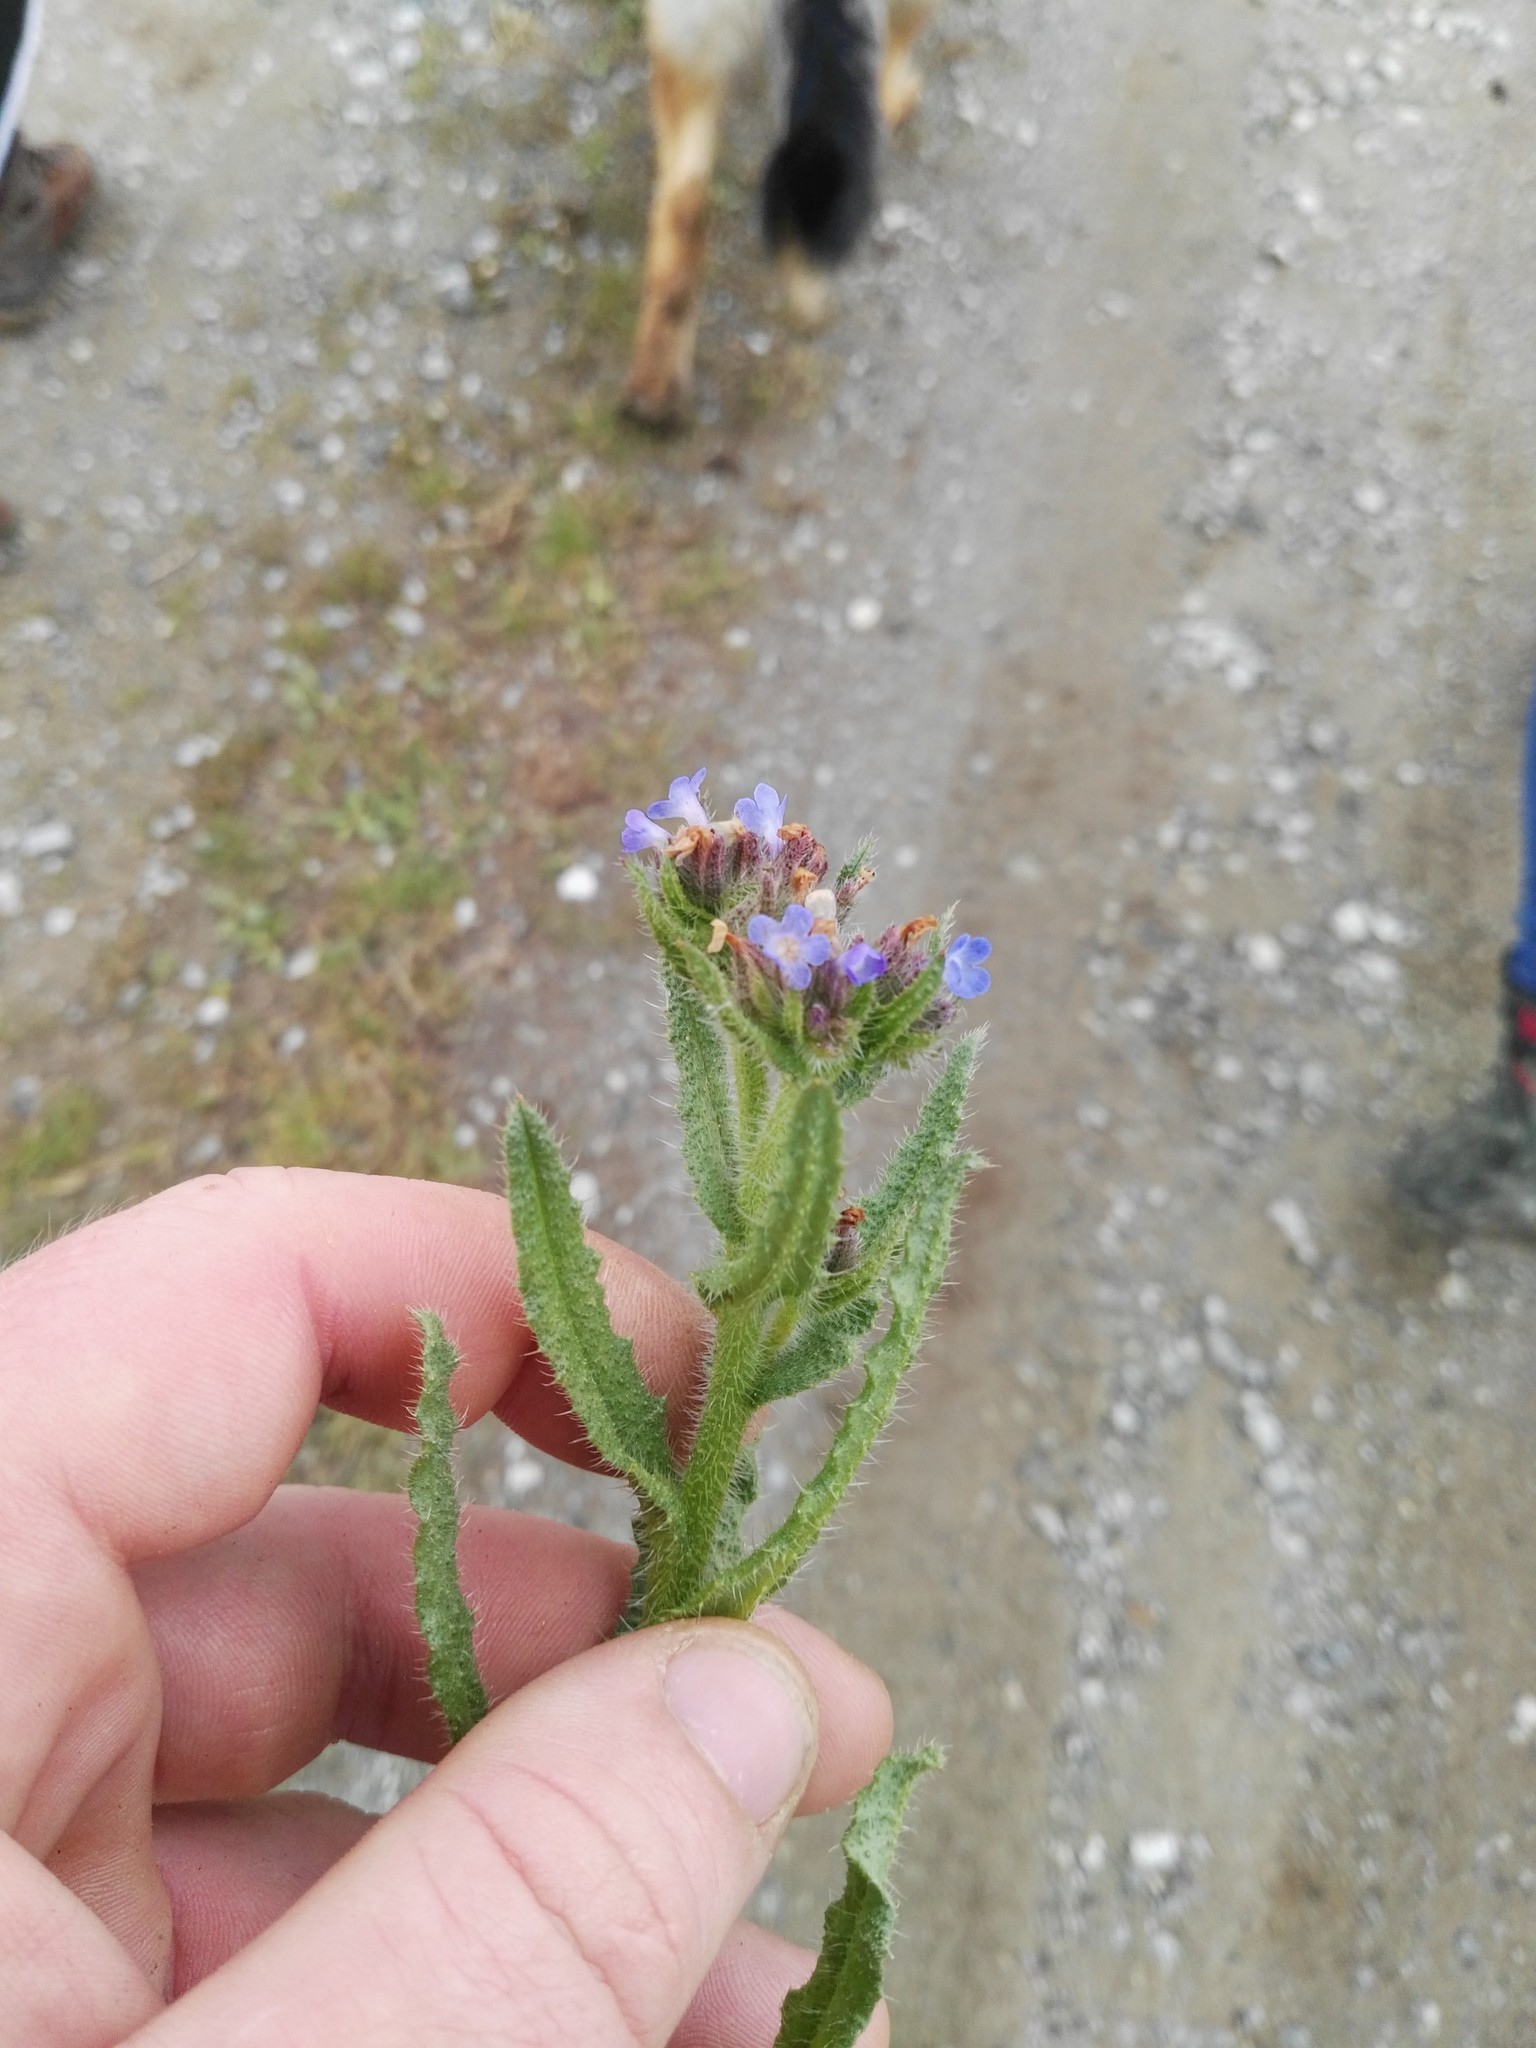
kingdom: Plantae
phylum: Tracheophyta
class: Magnoliopsida
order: Boraginales
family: Boraginaceae
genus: Lycopsis
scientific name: Lycopsis arvensis
